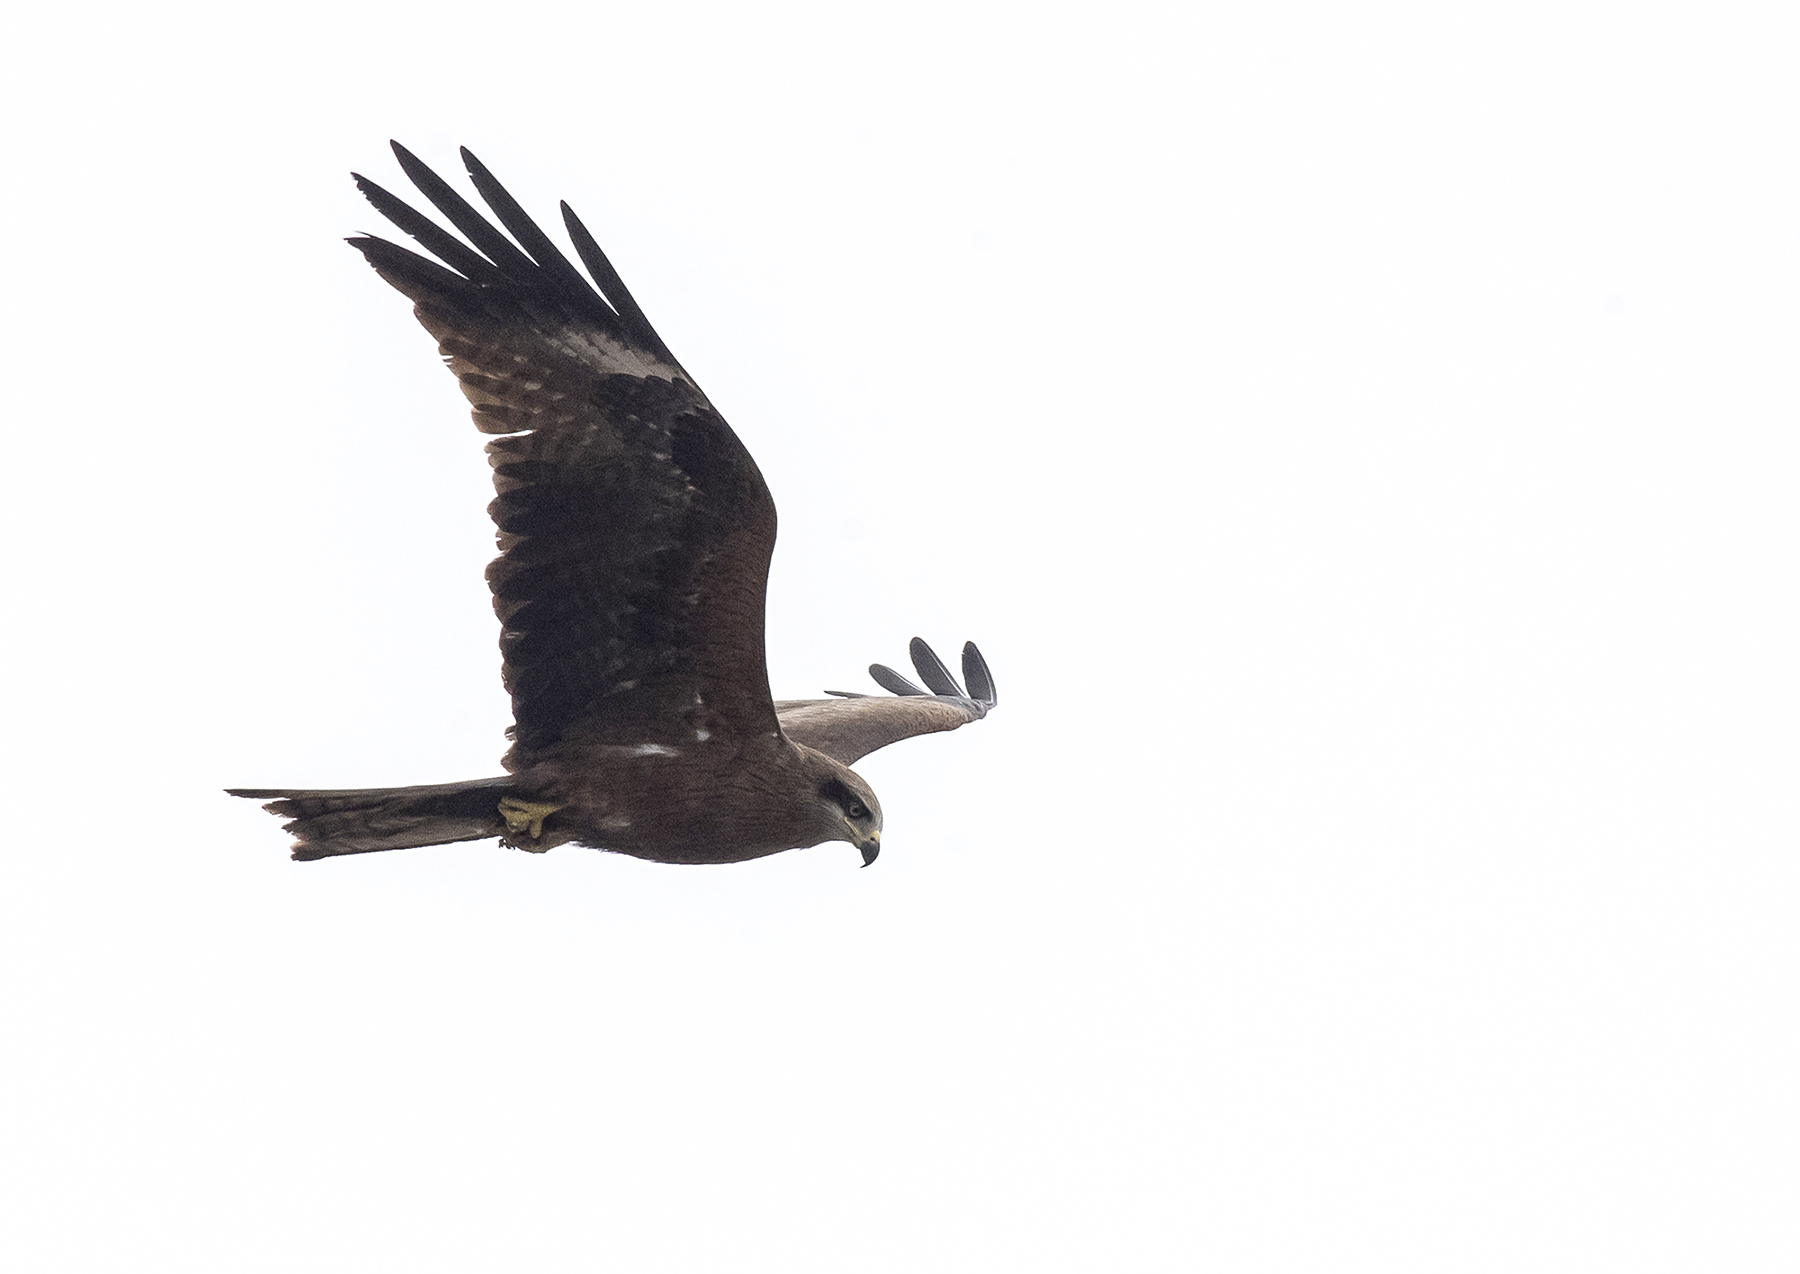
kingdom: Animalia
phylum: Chordata
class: Aves
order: Accipitriformes
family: Accipitridae
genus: Milvus
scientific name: Milvus migrans
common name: Black kite
